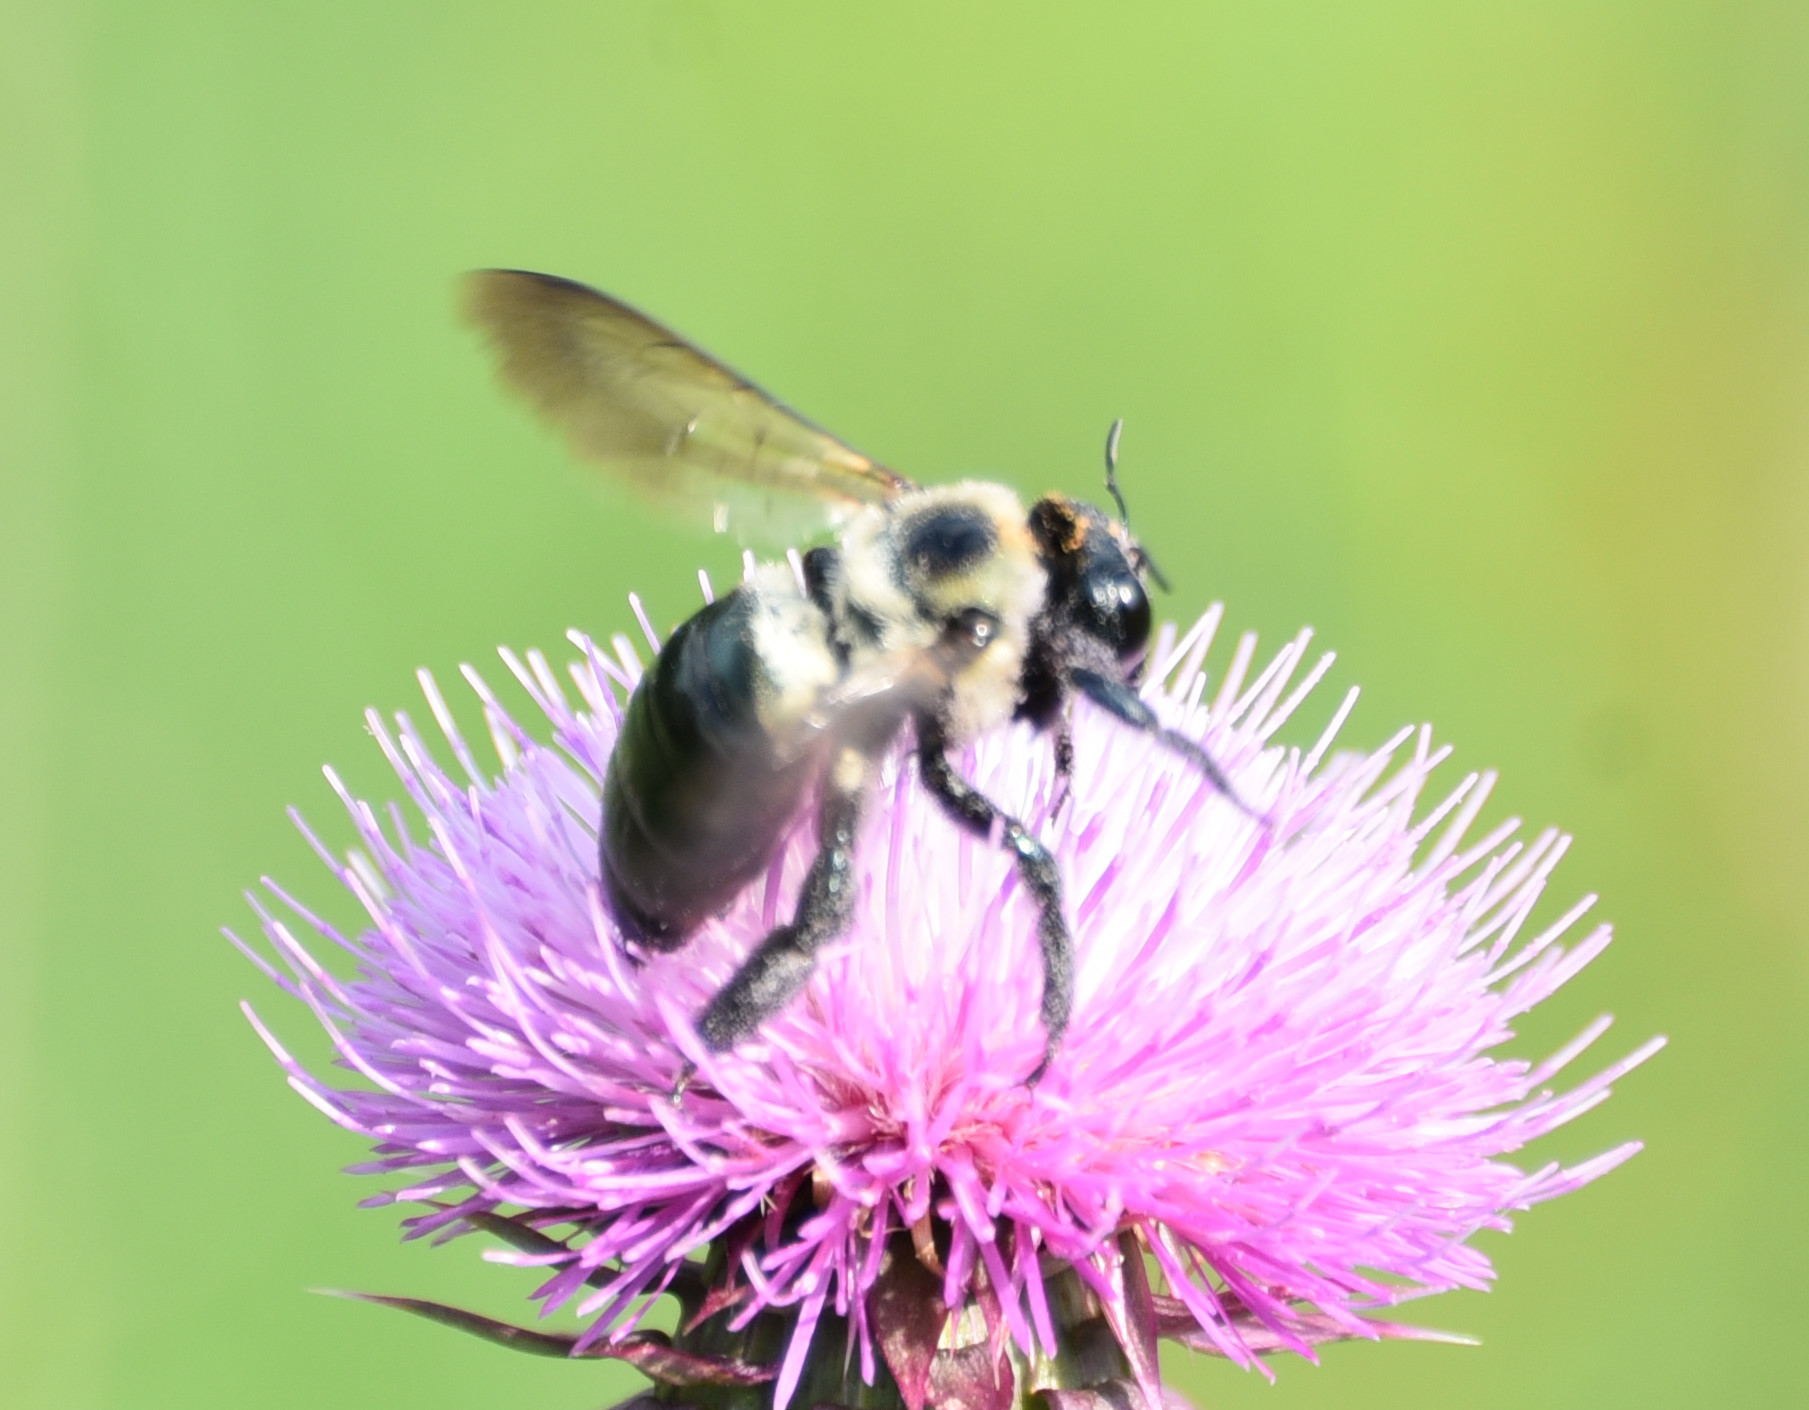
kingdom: Animalia
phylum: Arthropoda
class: Insecta
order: Hymenoptera
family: Apidae
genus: Xylocopa
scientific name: Xylocopa virginica
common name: Carpenter bee
